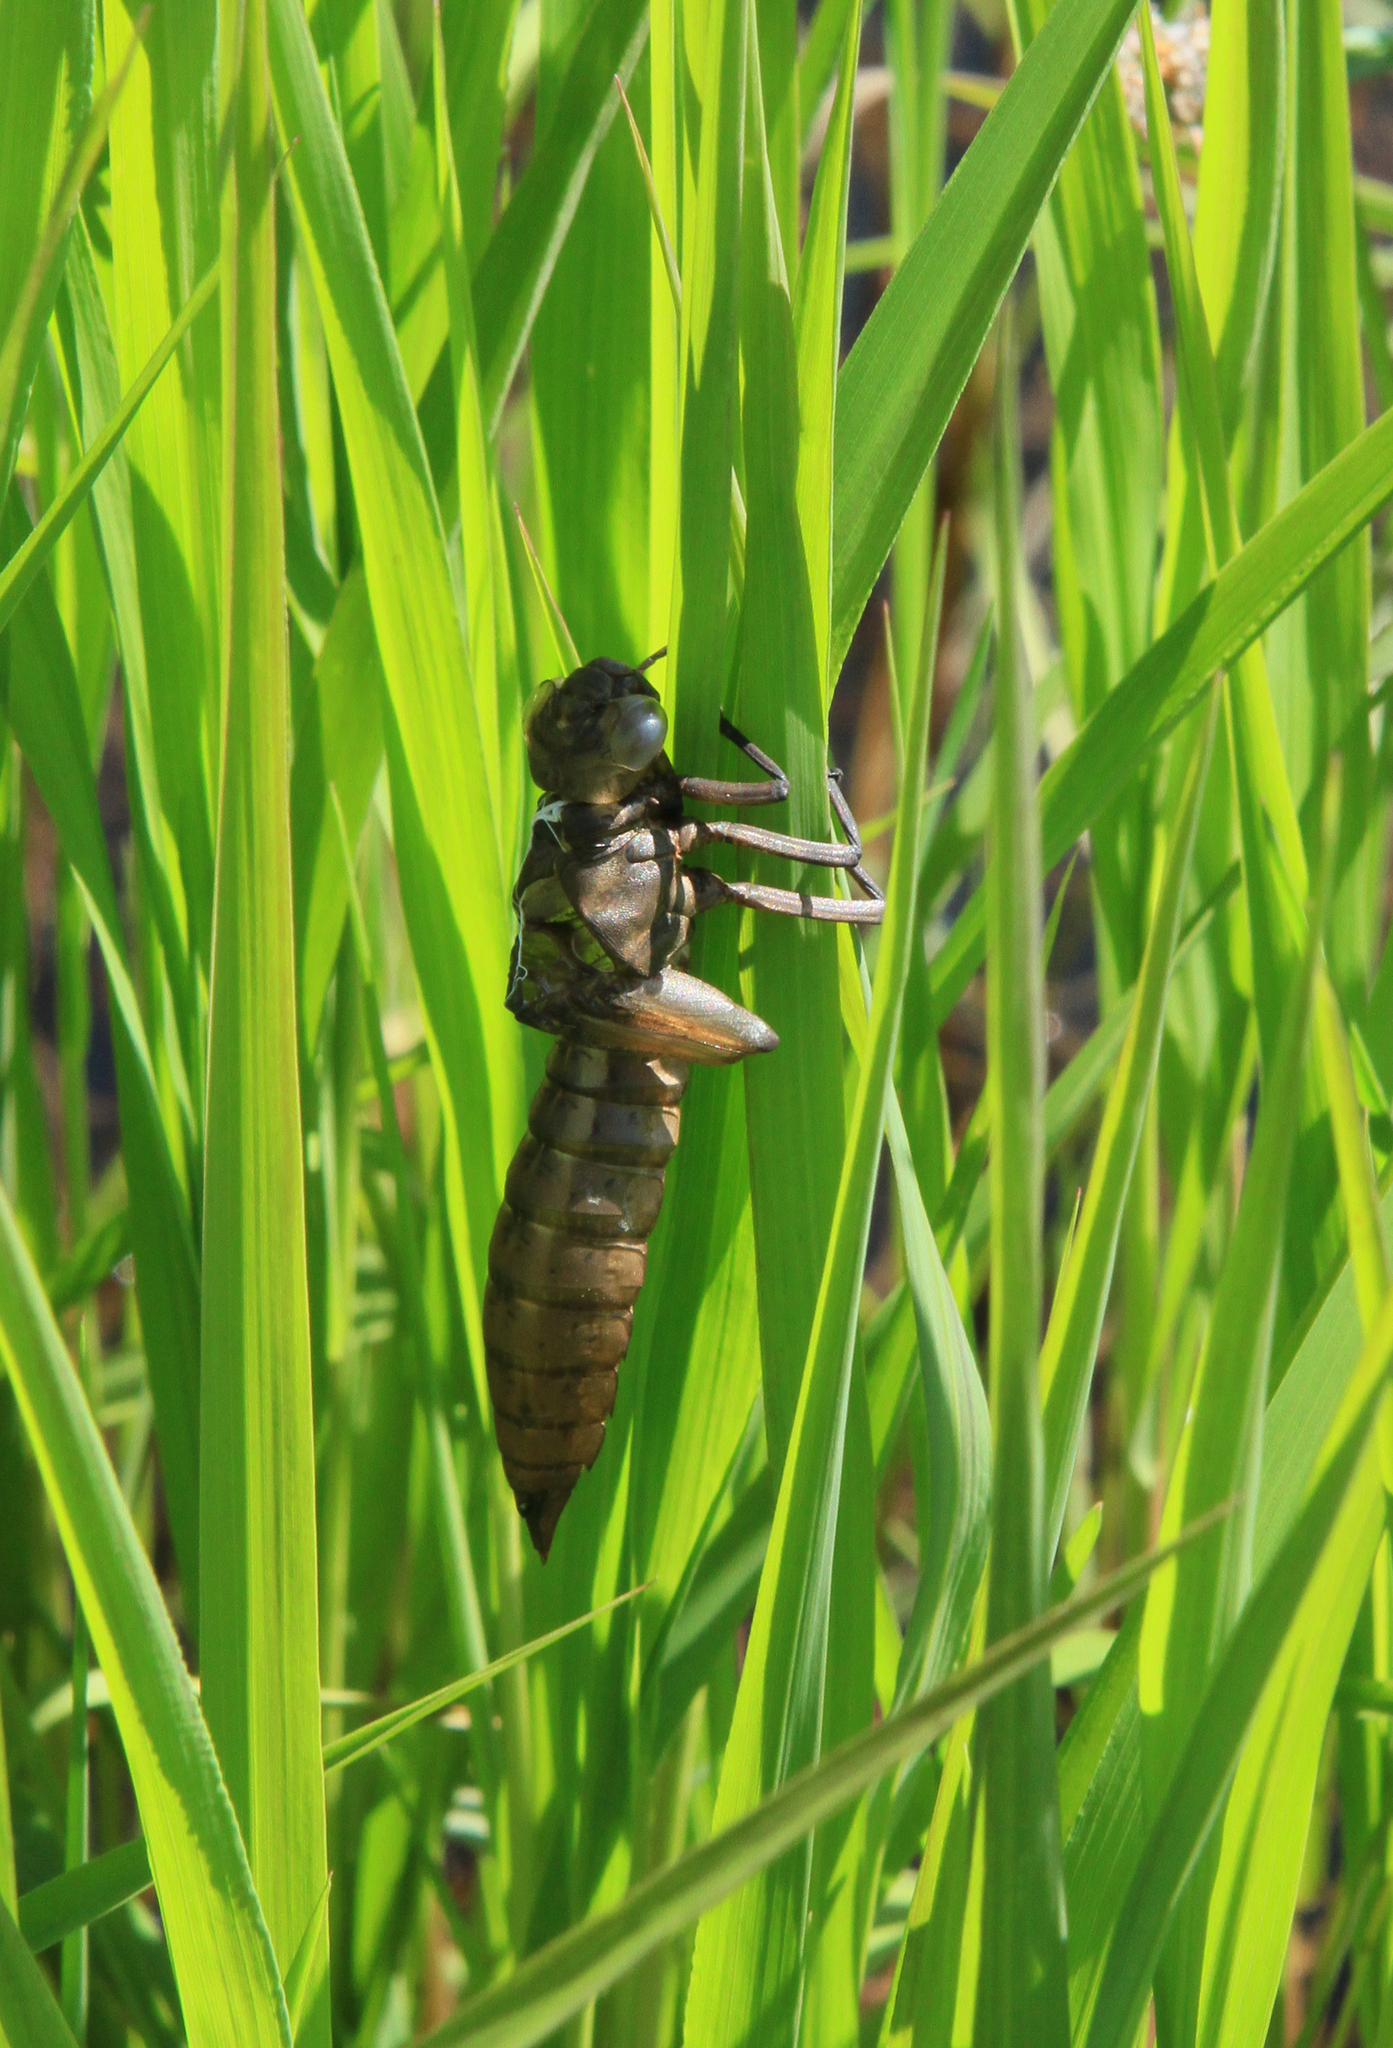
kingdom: Animalia
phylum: Arthropoda
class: Insecta
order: Odonata
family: Aeshnidae
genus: Aeshna
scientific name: Aeshna juncea
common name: Moorland hawker
